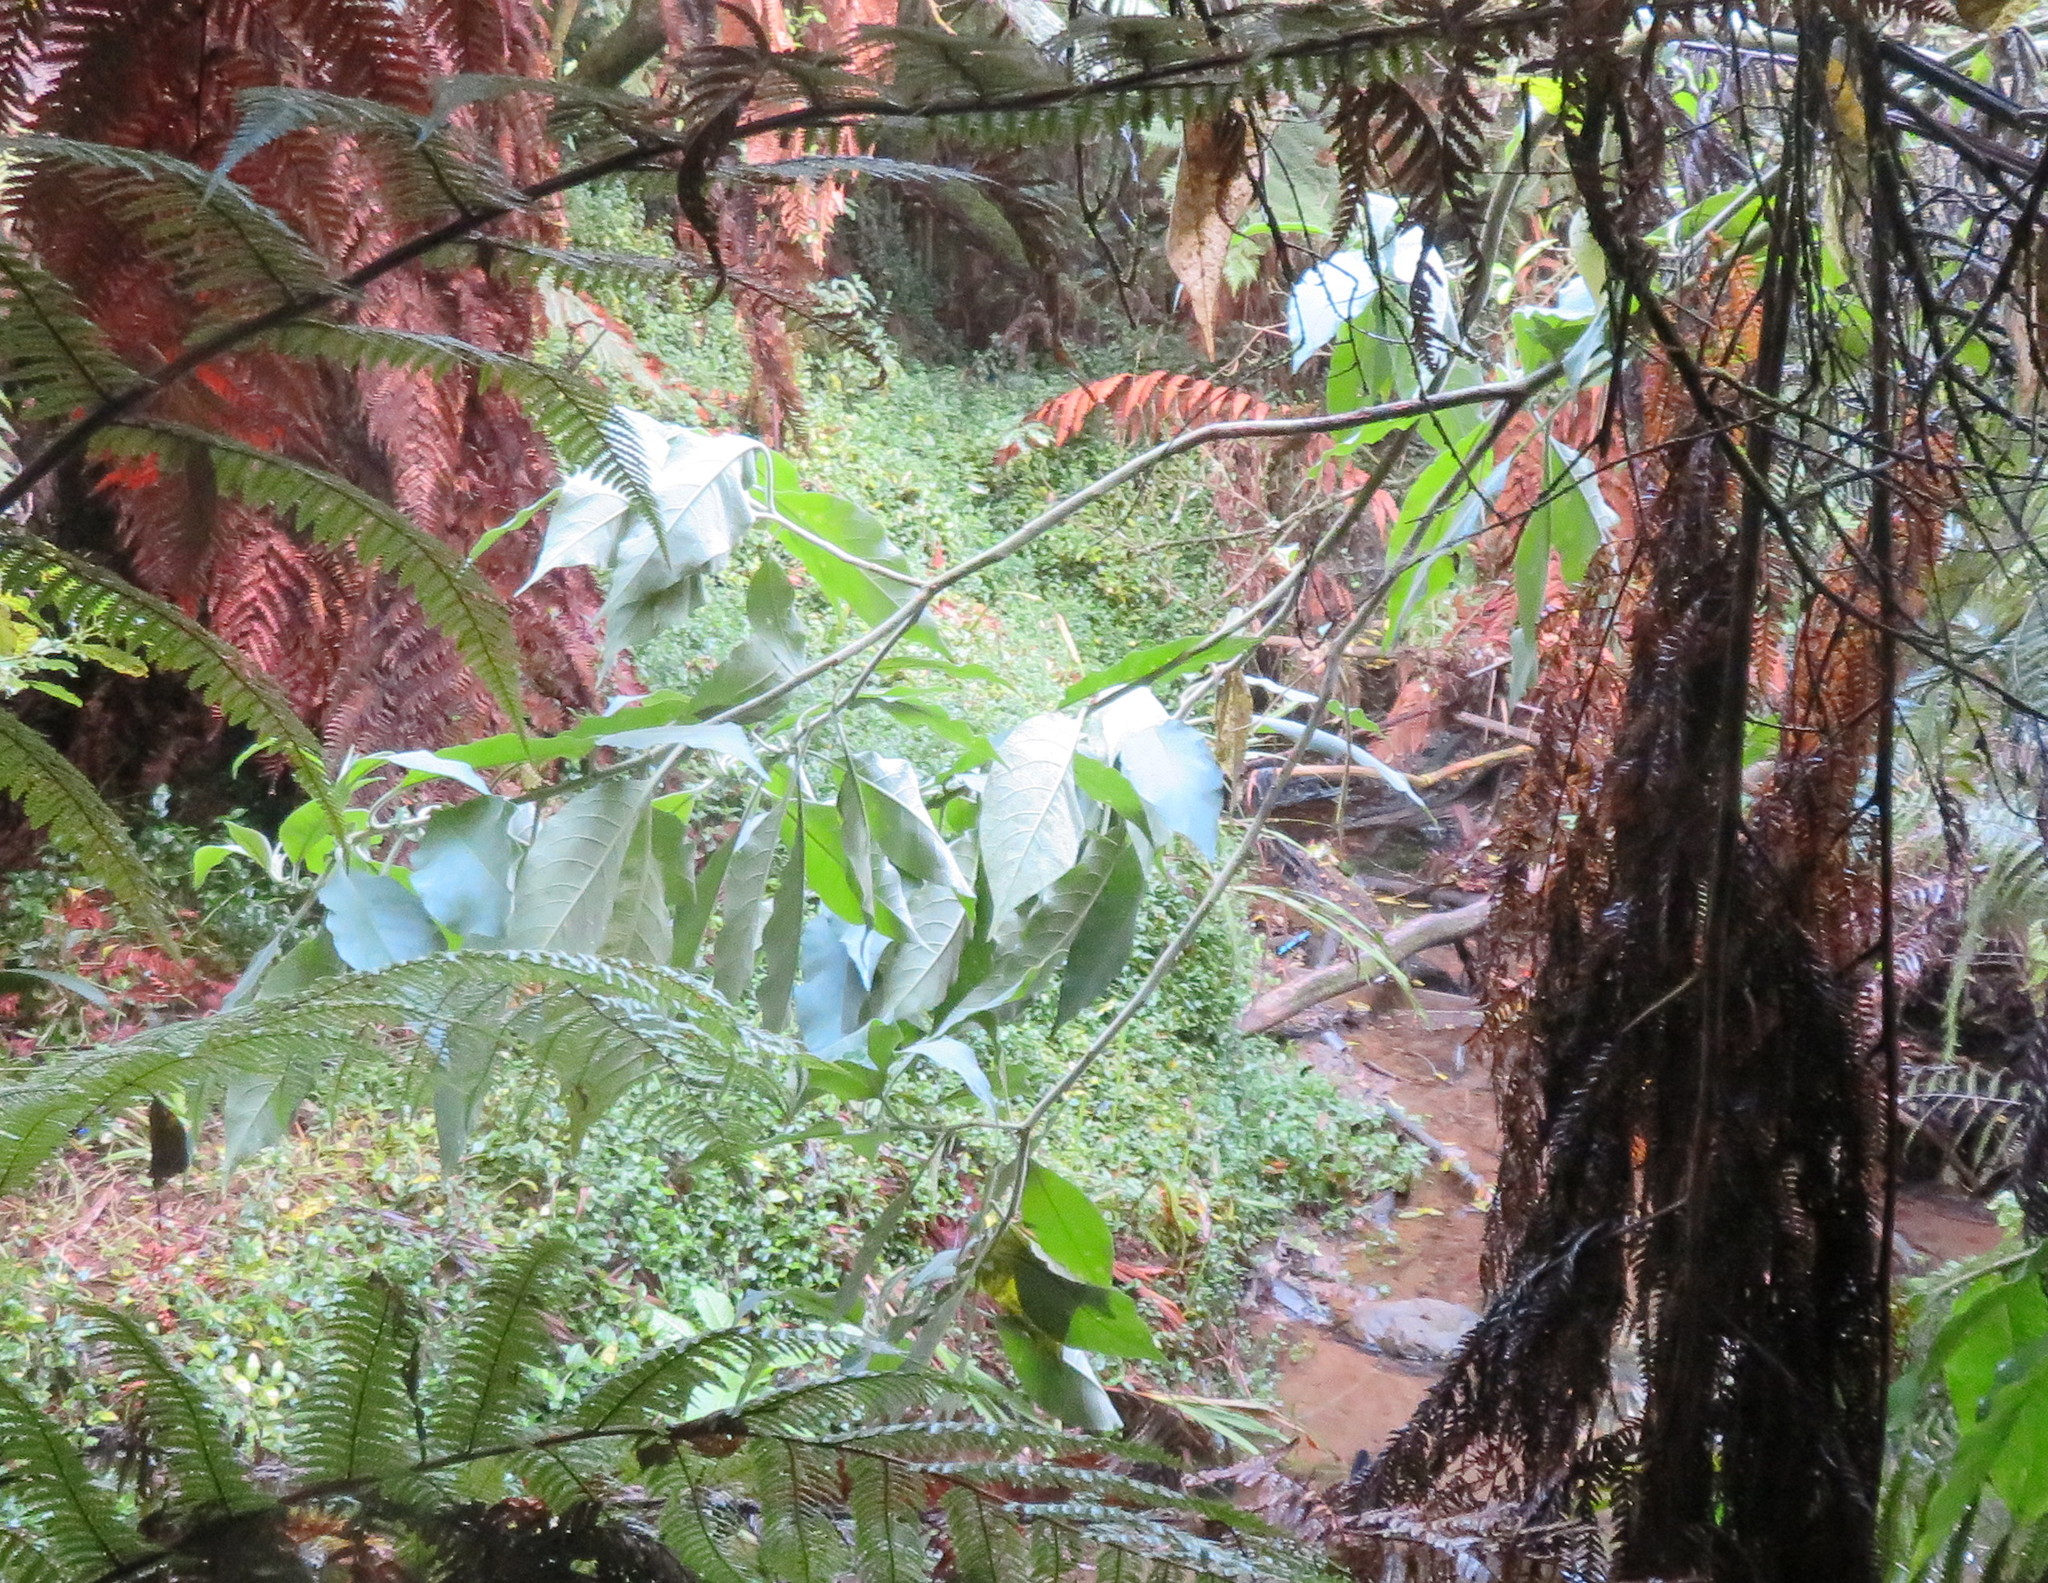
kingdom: Plantae
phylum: Tracheophyta
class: Magnoliopsida
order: Solanales
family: Solanaceae
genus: Solanum
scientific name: Solanum mauritianum
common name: Earleaf nightshade
